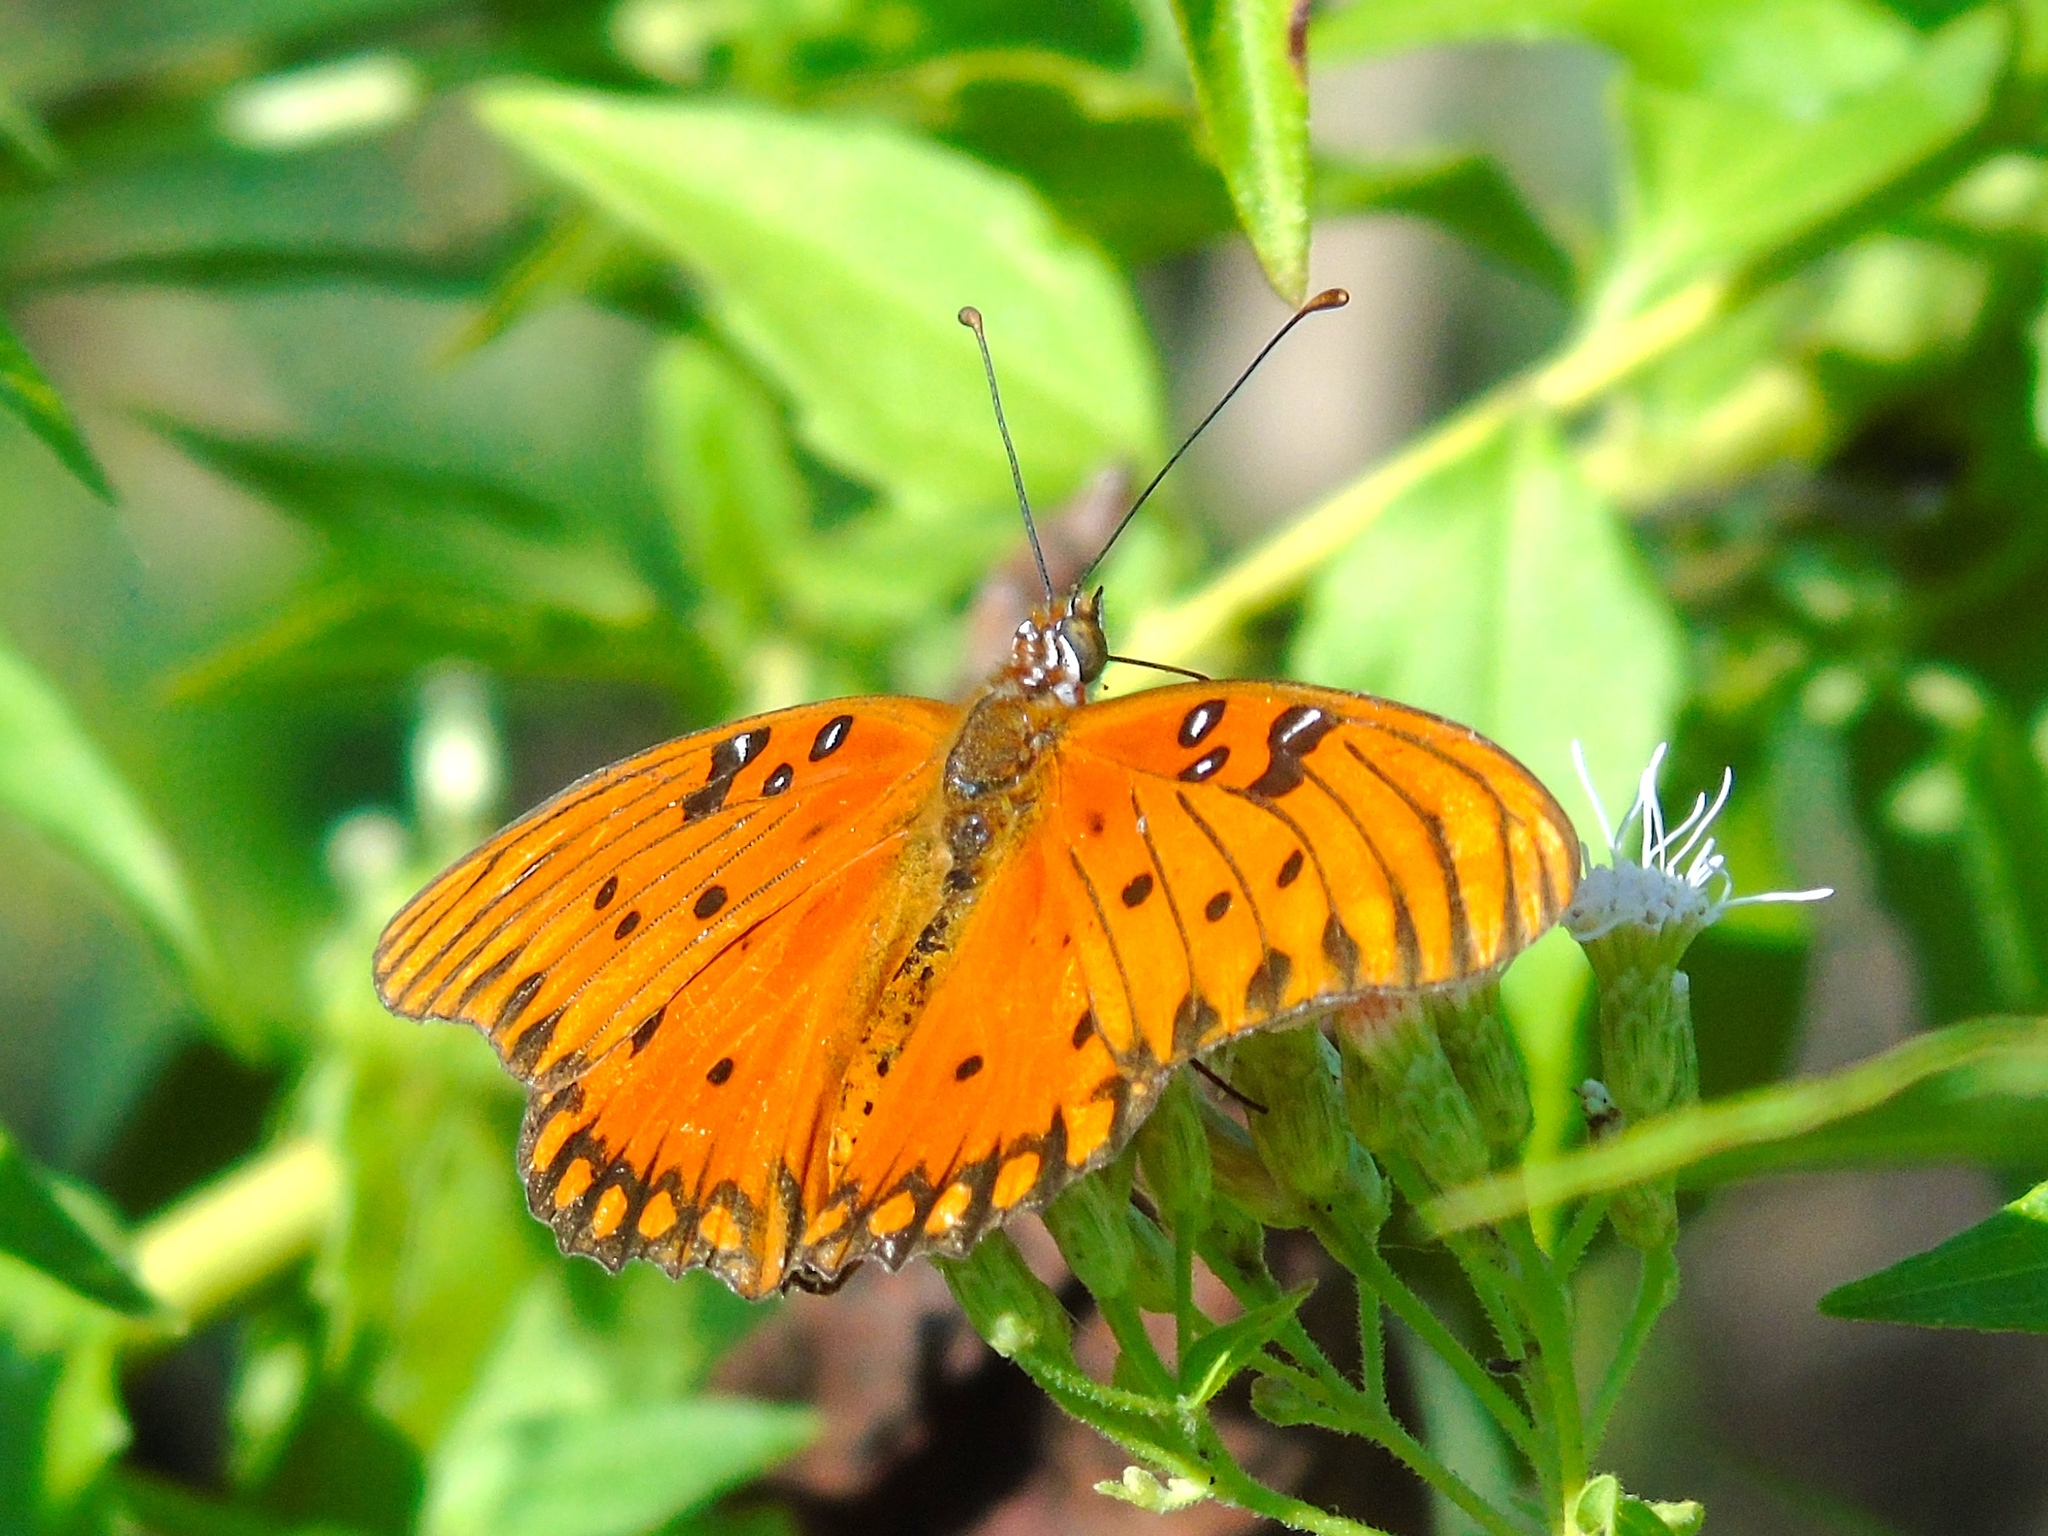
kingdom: Animalia
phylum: Arthropoda
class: Insecta
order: Lepidoptera
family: Nymphalidae
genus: Dione
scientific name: Dione vanillae
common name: Gulf fritillary
